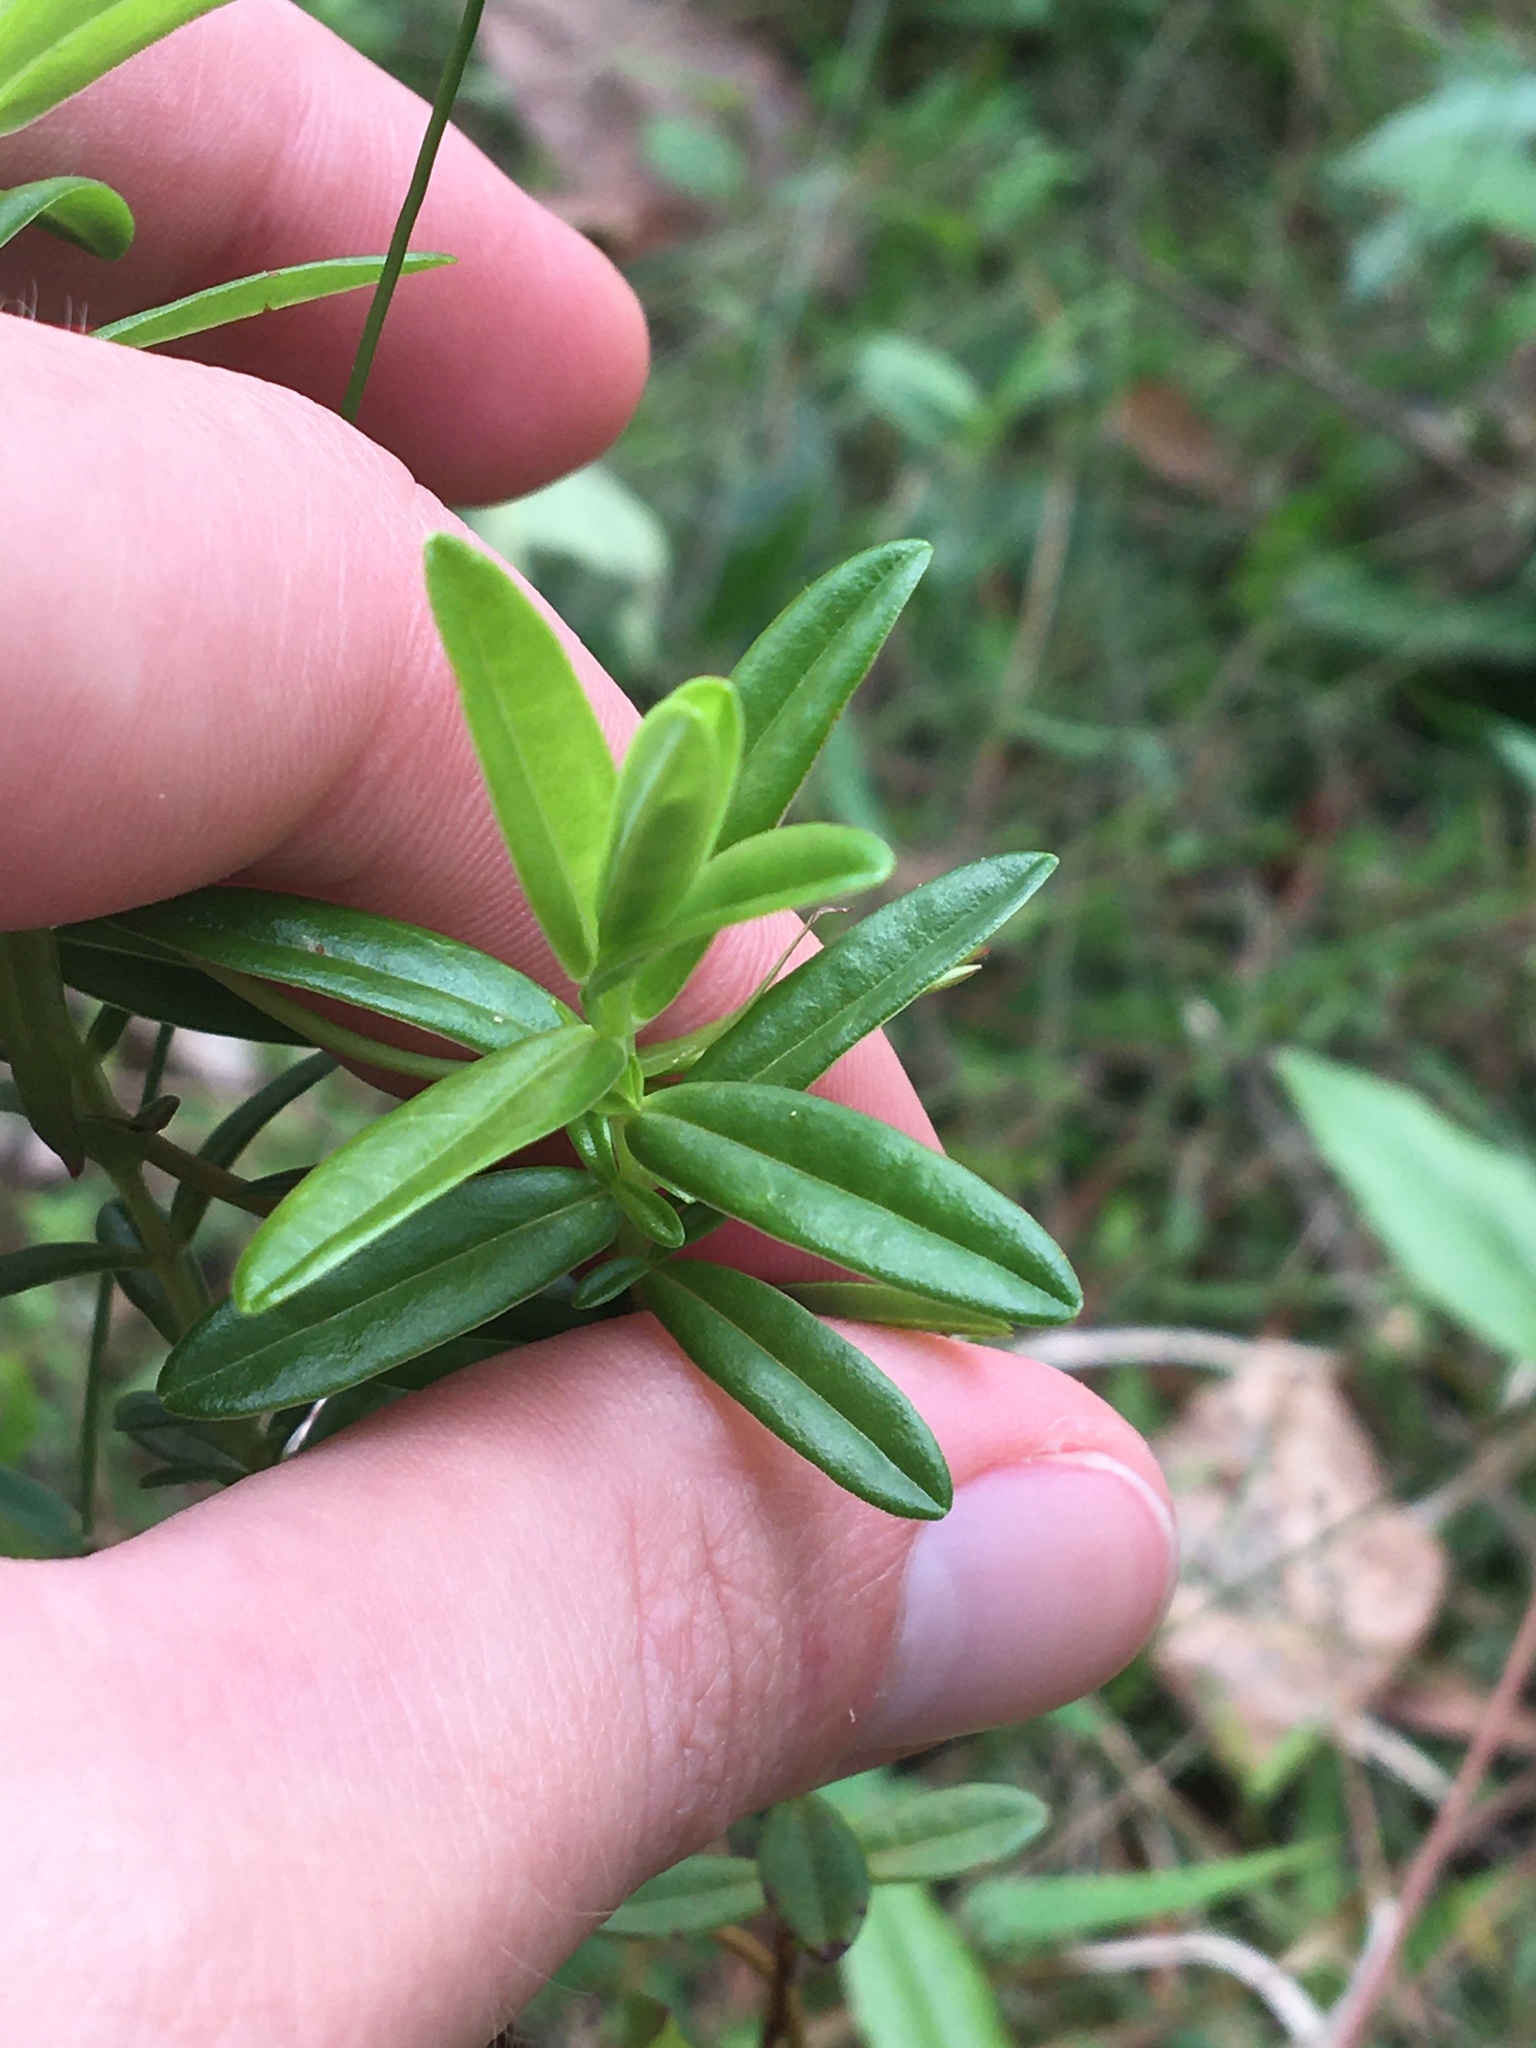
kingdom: Plantae
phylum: Tracheophyta
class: Magnoliopsida
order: Malpighiales
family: Hypericaceae
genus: Hypericum
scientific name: Hypericum cistifolium
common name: Round-pod st. john's-wort
